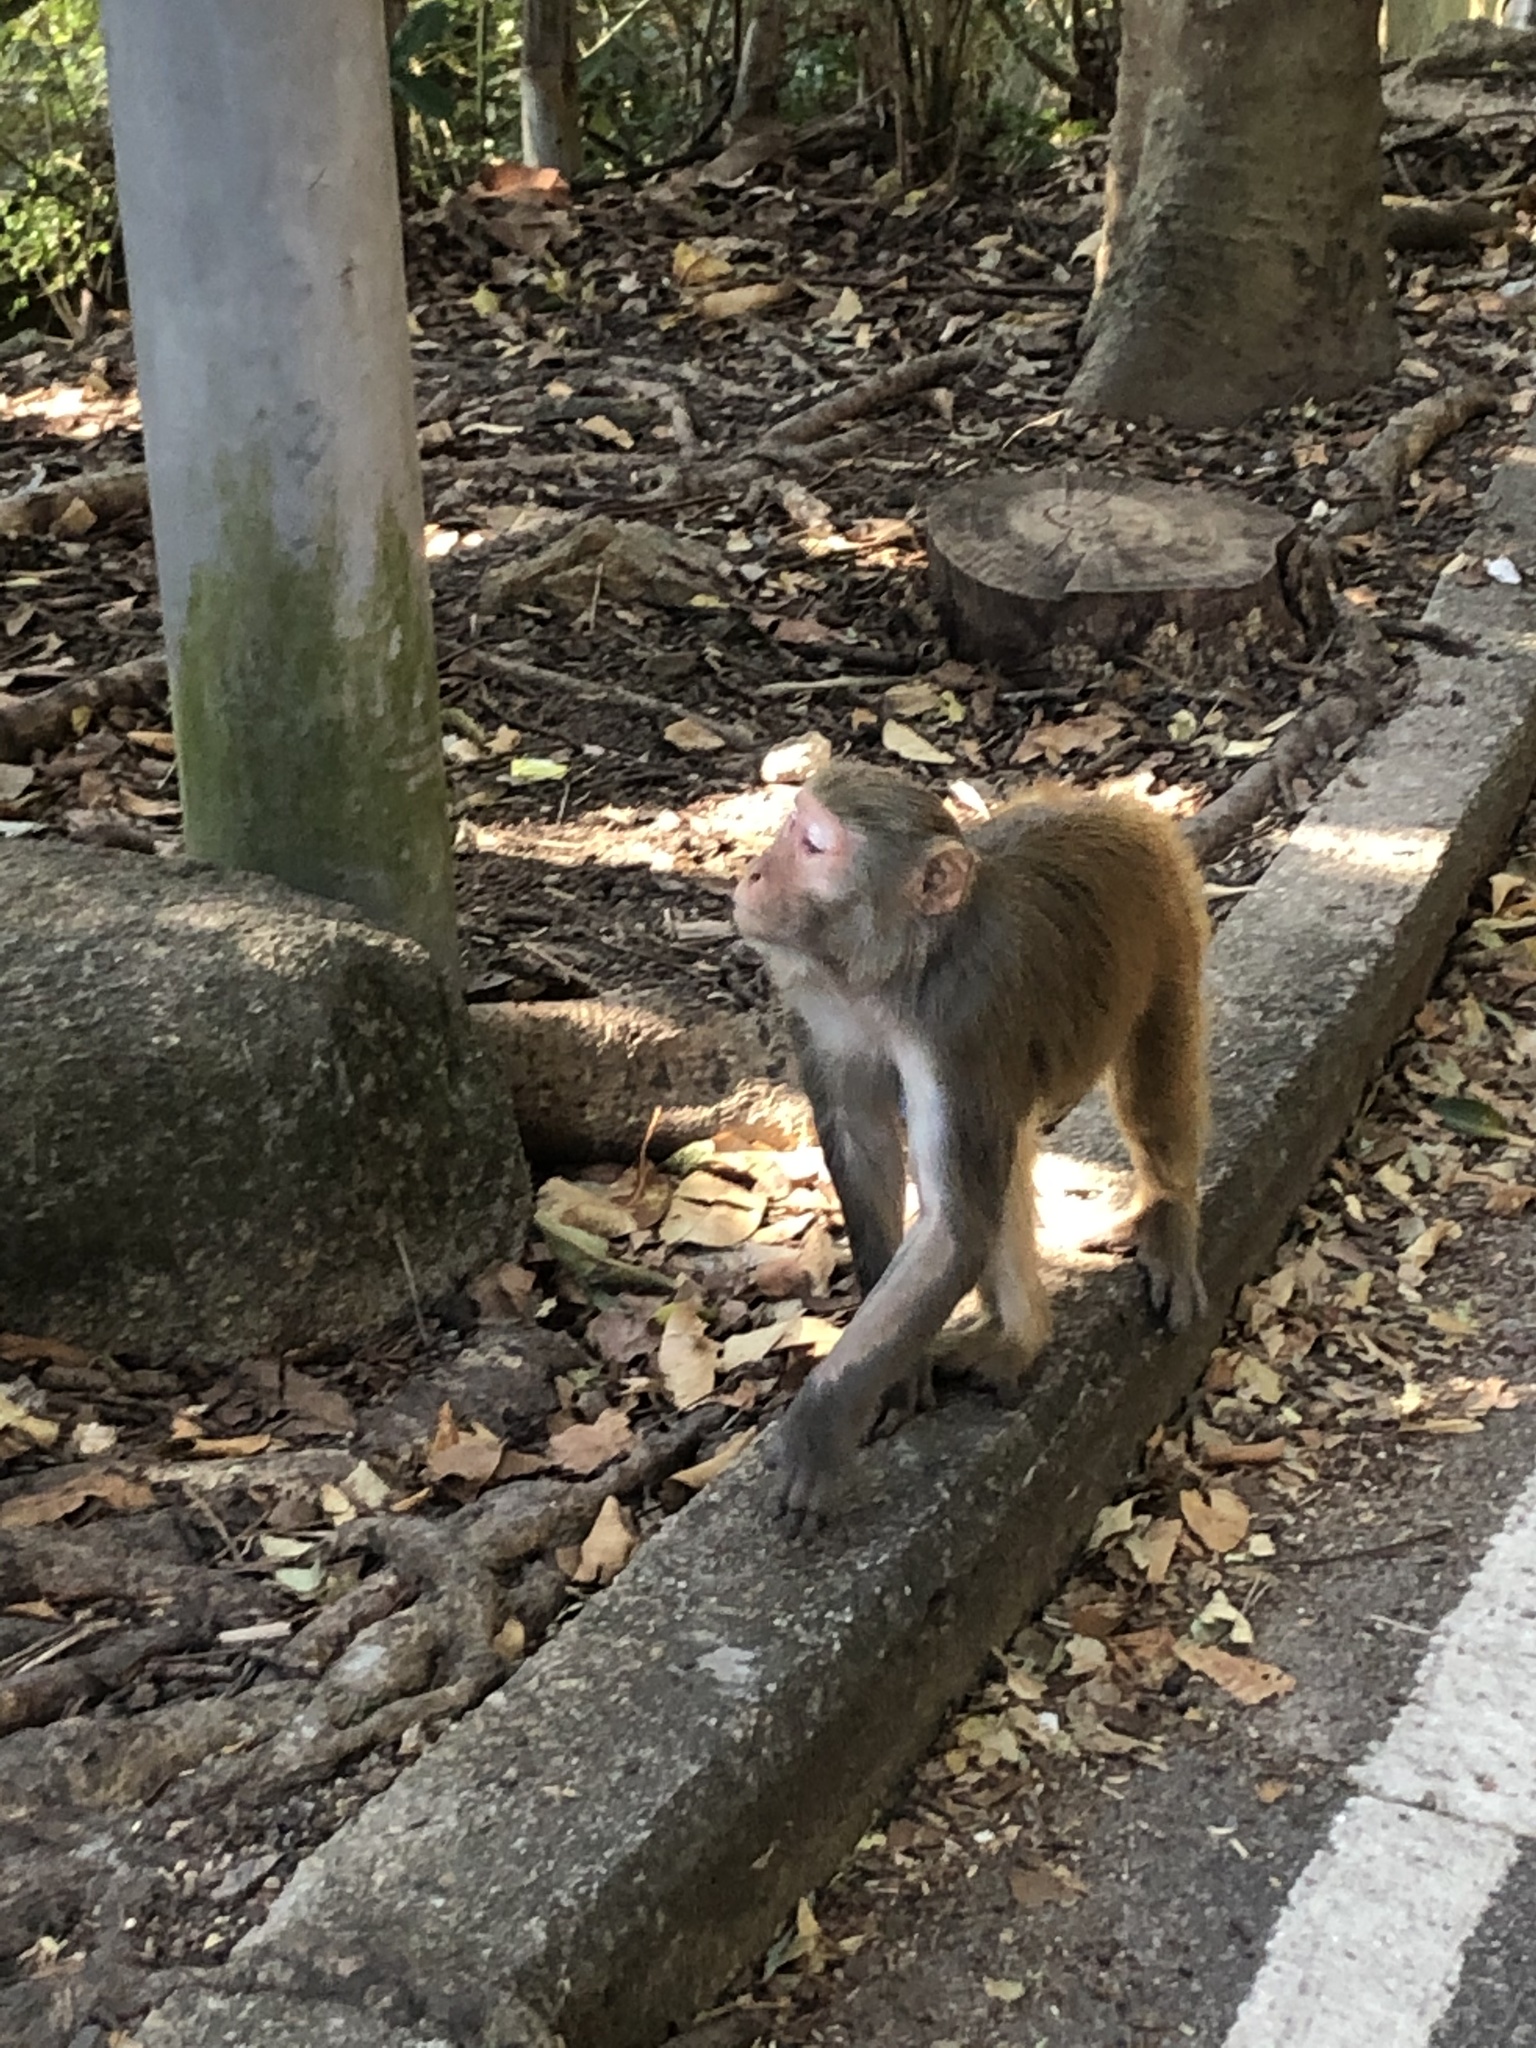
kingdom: Animalia
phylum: Chordata
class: Mammalia
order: Primates
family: Cercopithecidae
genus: Macaca
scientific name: Macaca mulatta
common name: Rhesus monkey
